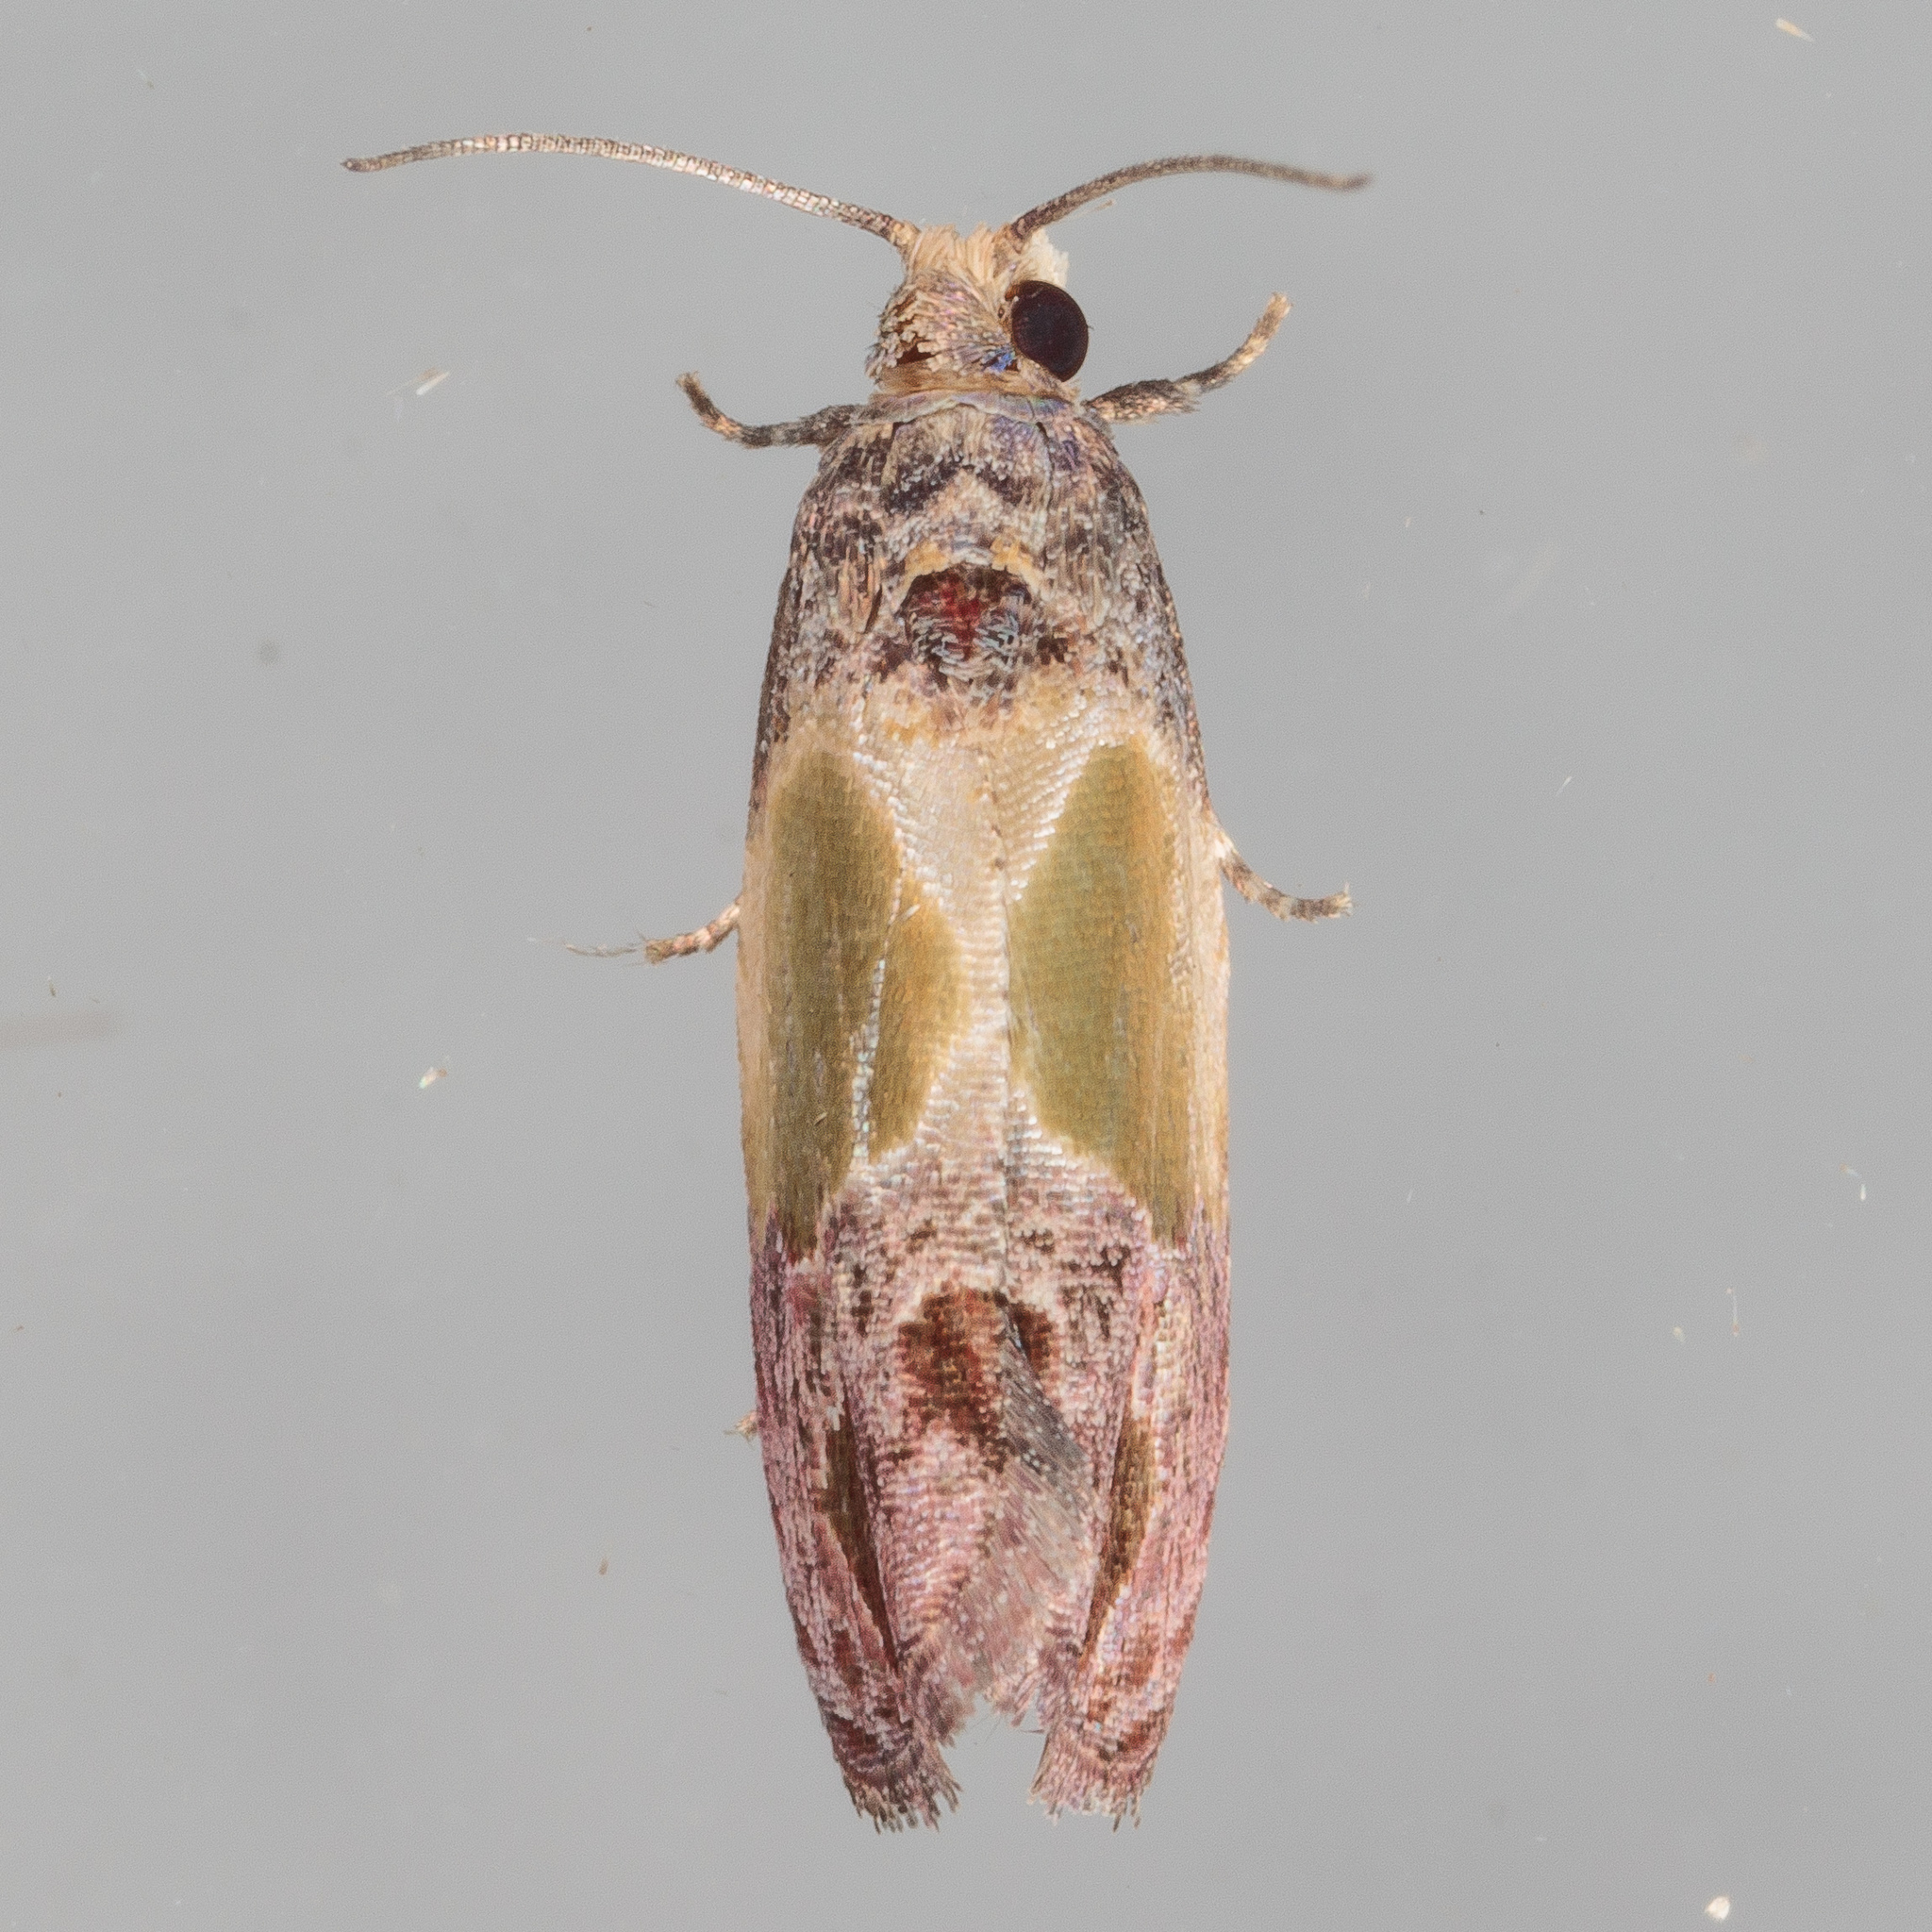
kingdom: Animalia
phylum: Arthropoda
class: Insecta
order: Lepidoptera
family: Tortricidae
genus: Eumarozia
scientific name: Eumarozia malachitana
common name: Sculptured moth
